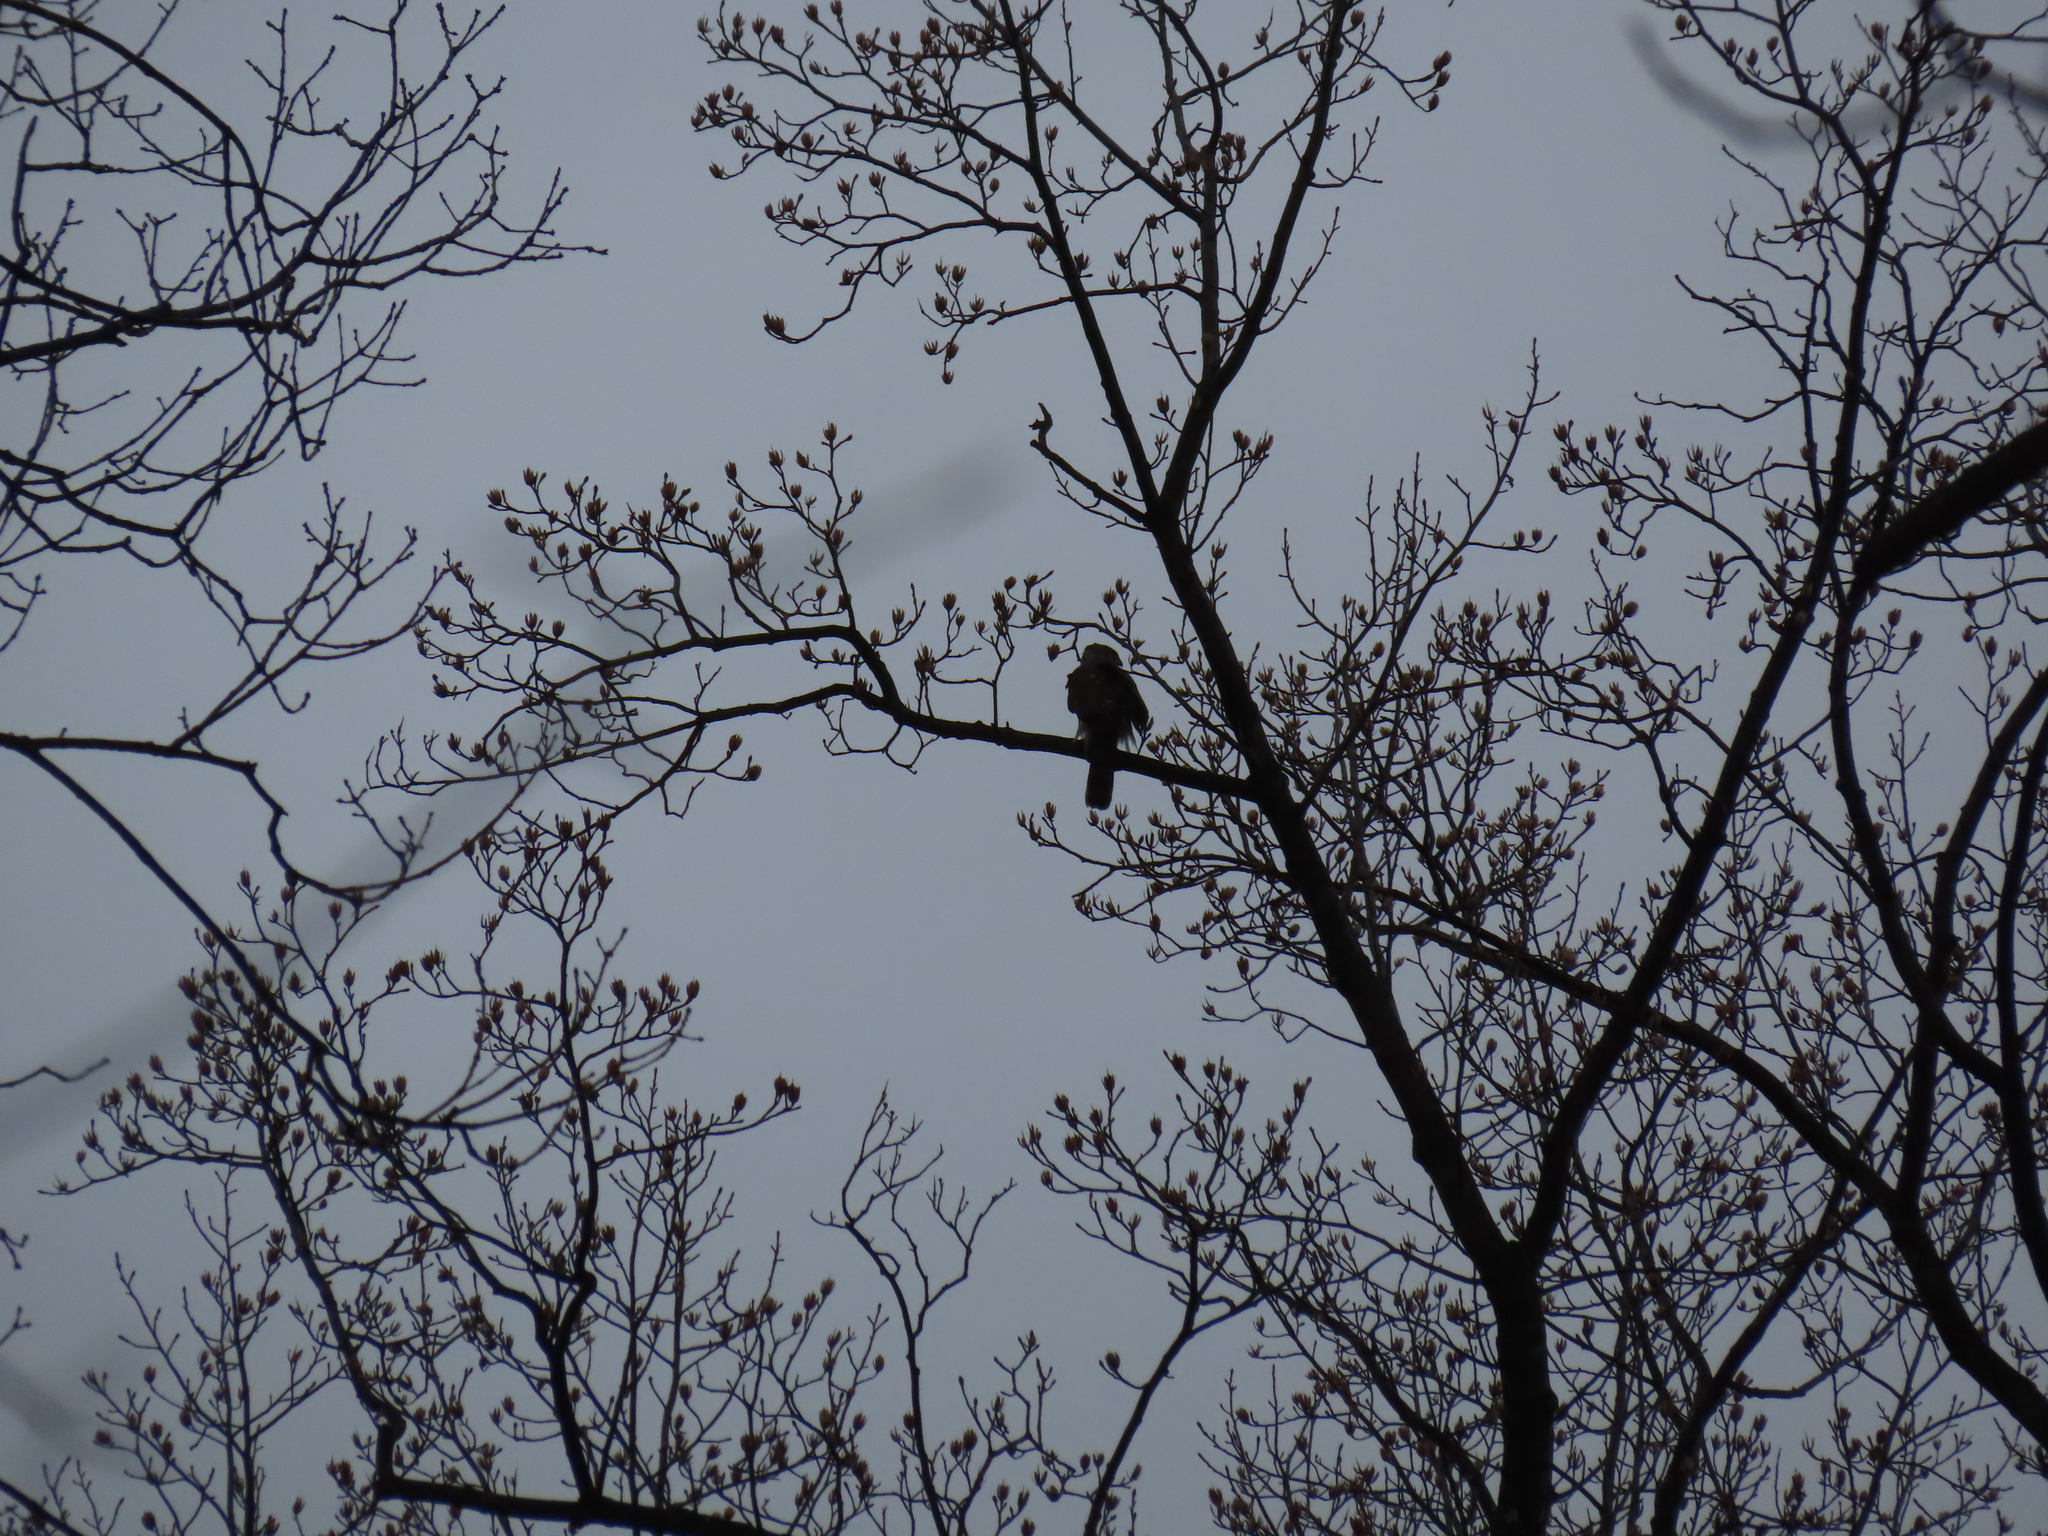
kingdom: Animalia
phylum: Chordata
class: Aves
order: Accipitriformes
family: Accipitridae
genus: Accipiter
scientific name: Accipiter cooperii
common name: Cooper's hawk
